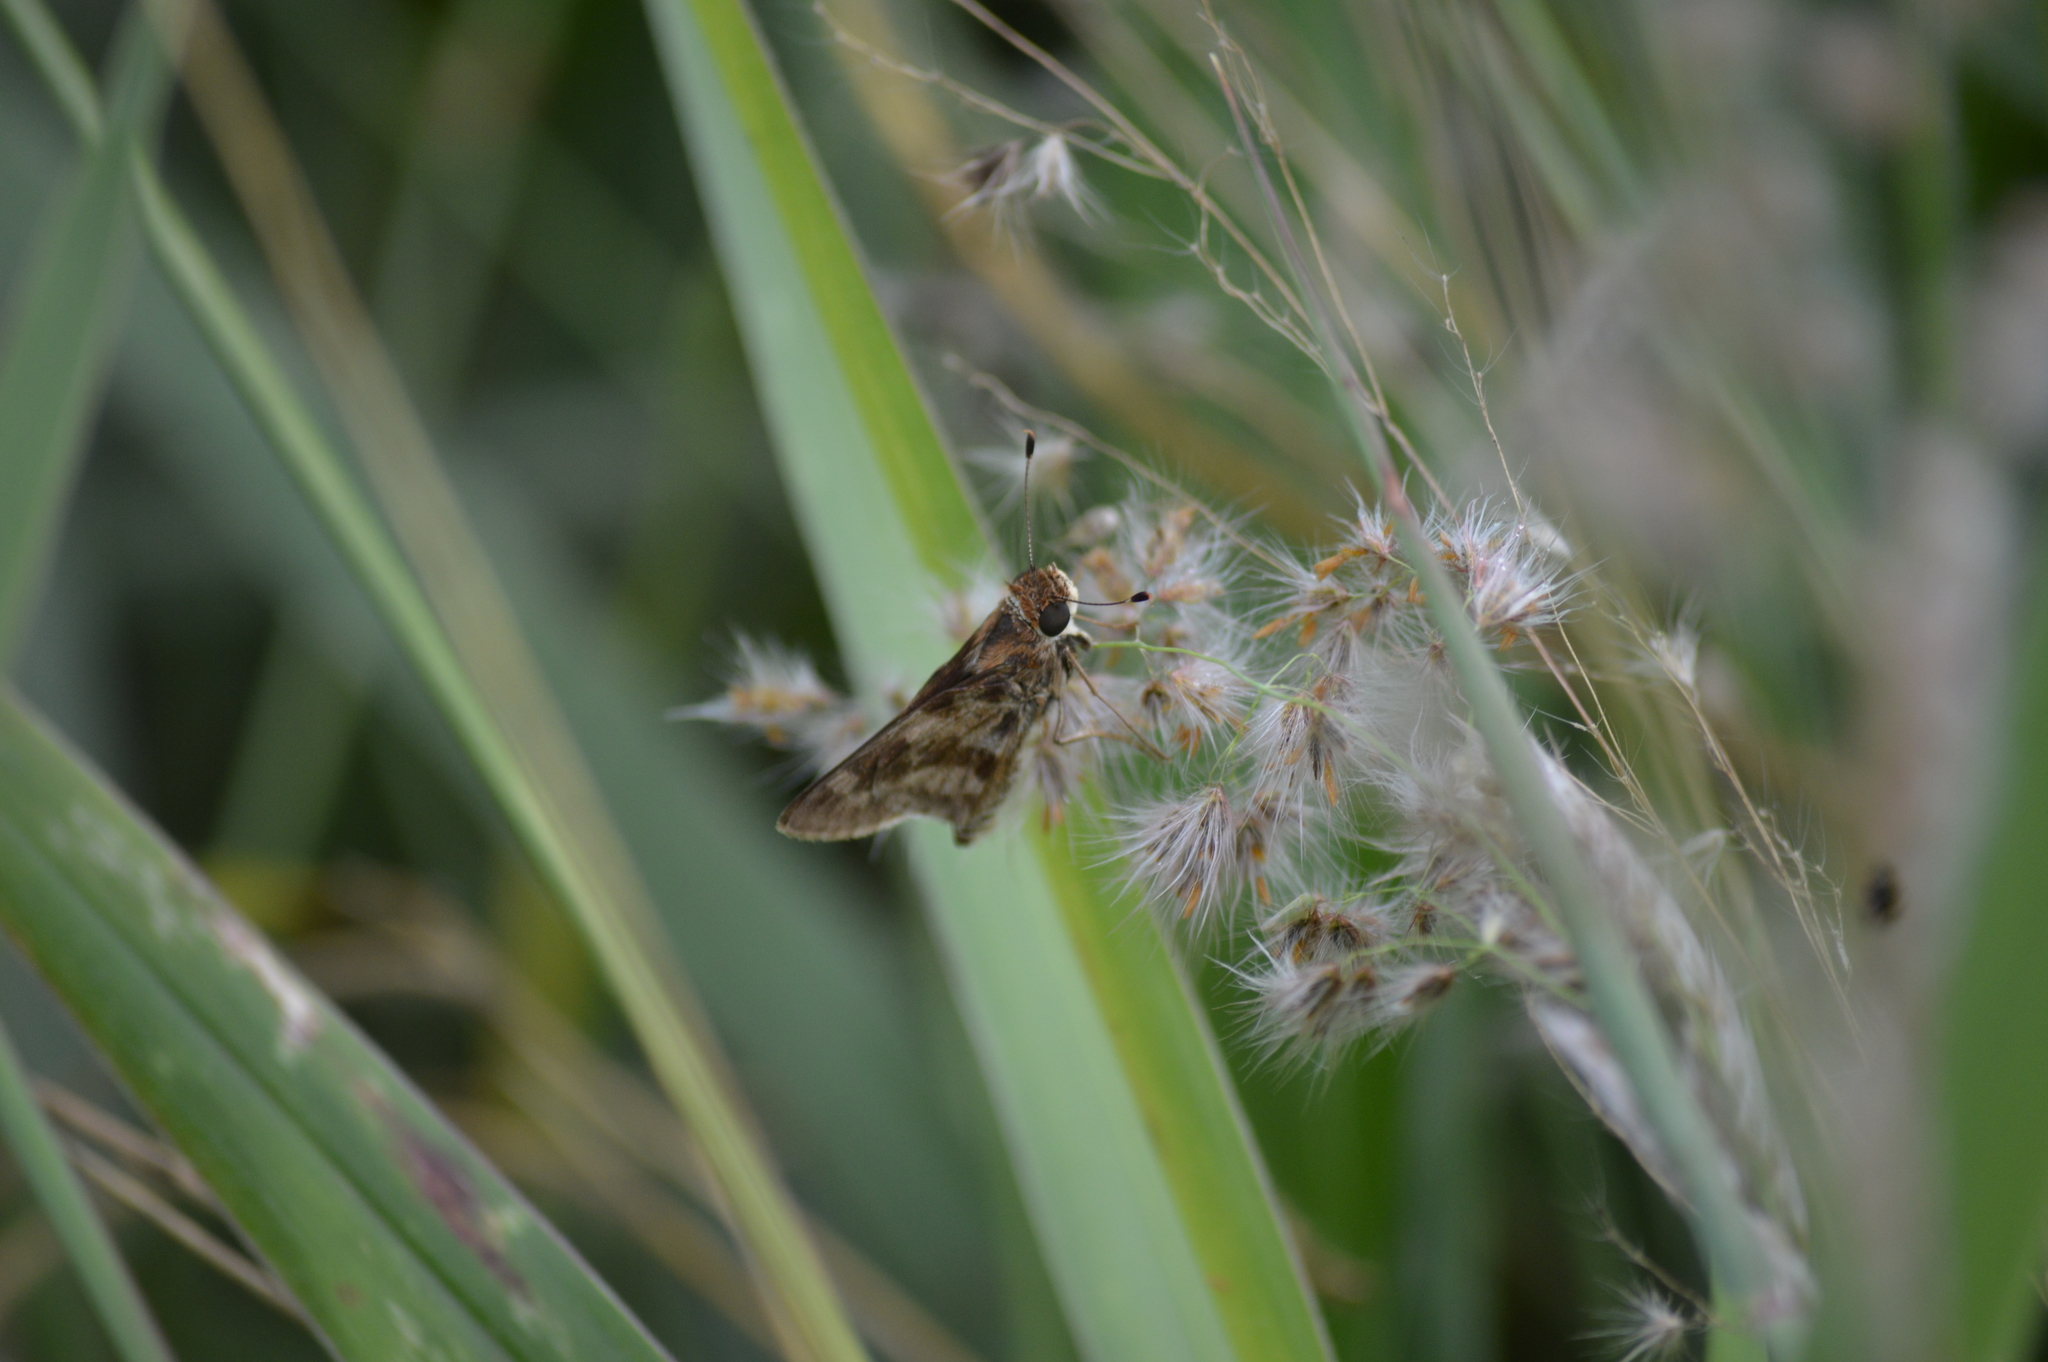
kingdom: Animalia
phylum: Arthropoda
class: Insecta
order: Lepidoptera
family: Hesperiidae
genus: Pompeius
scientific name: Pompeius pompeius
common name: Pompeius skipper
